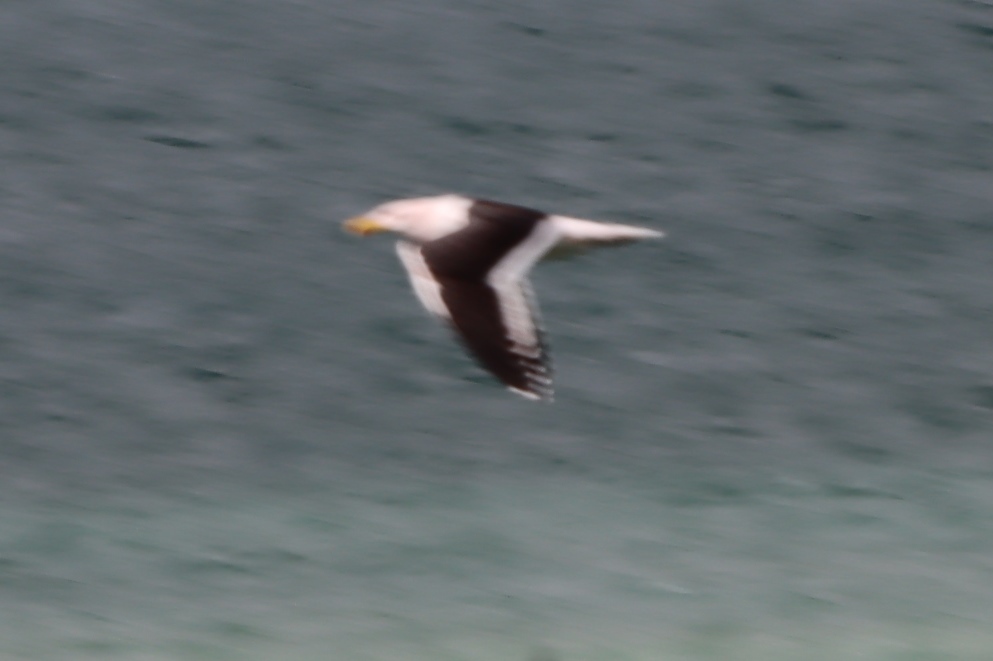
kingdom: Animalia
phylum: Chordata
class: Aves
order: Charadriiformes
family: Laridae
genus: Larus
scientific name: Larus dominicanus
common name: Kelp gull
